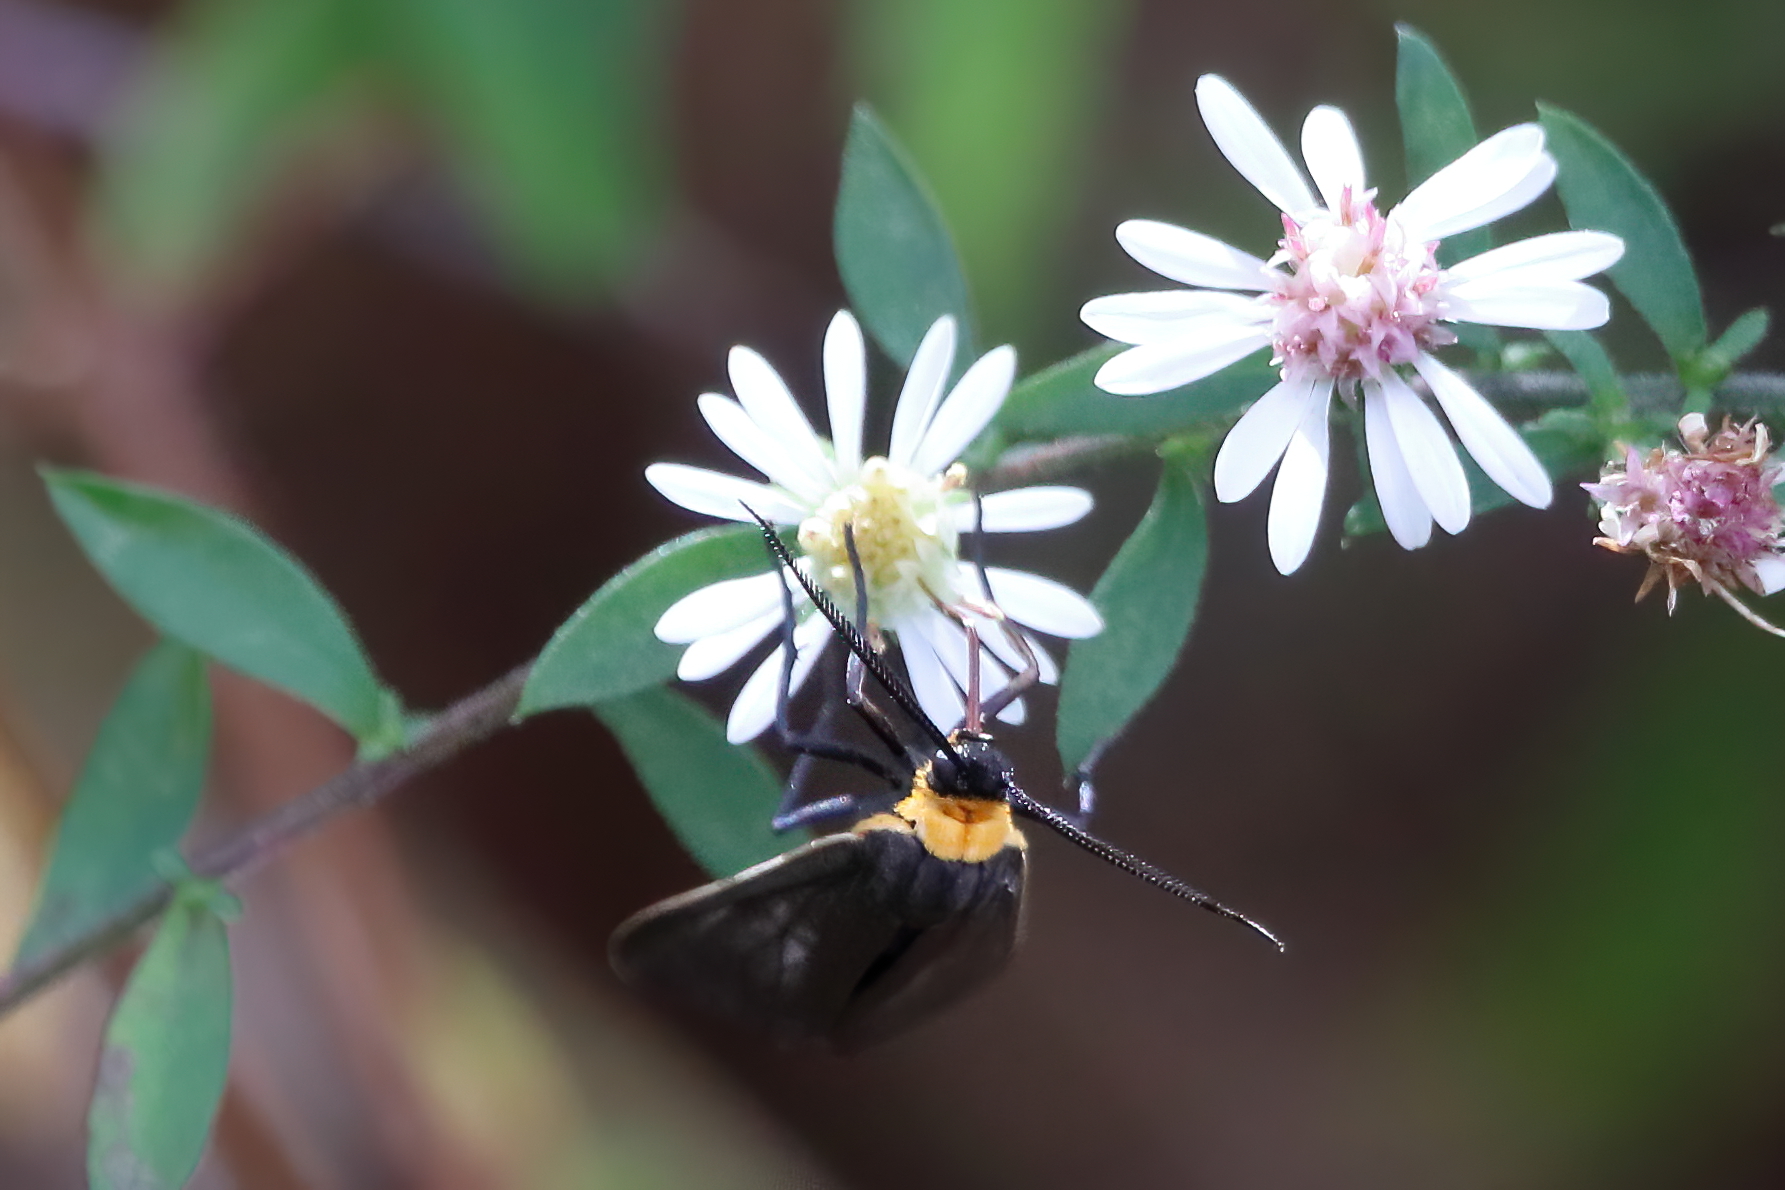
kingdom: Animalia
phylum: Arthropoda
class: Insecta
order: Lepidoptera
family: Erebidae
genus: Cisseps
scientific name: Cisseps fulvicollis
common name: Yellow-collared scape moth
